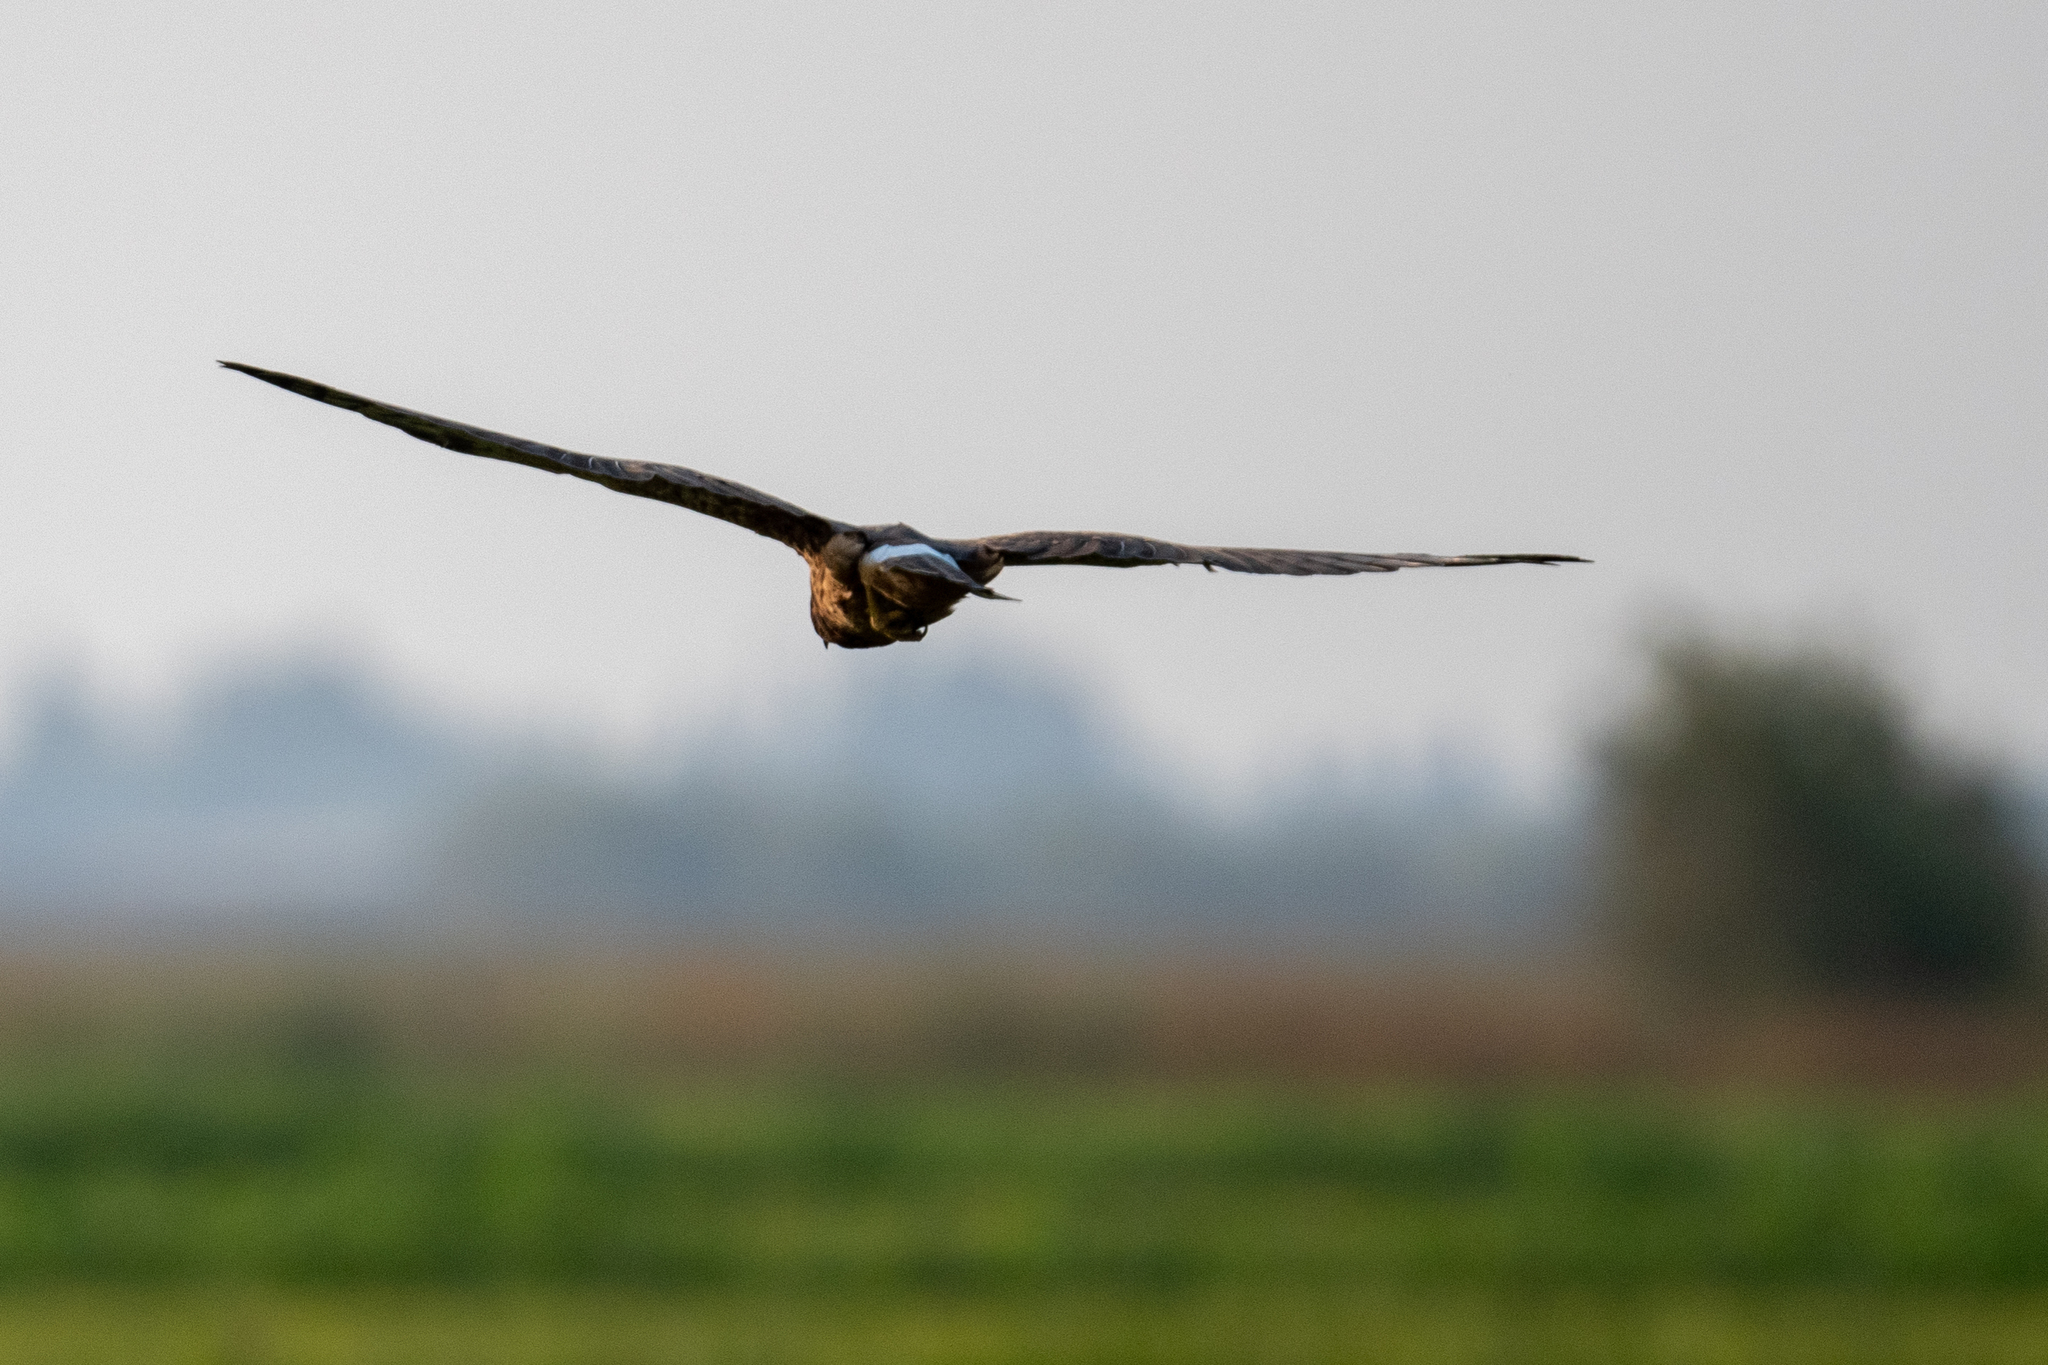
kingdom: Animalia
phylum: Chordata
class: Aves
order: Accipitriformes
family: Accipitridae
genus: Circus
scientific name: Circus cyaneus
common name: Hen harrier
